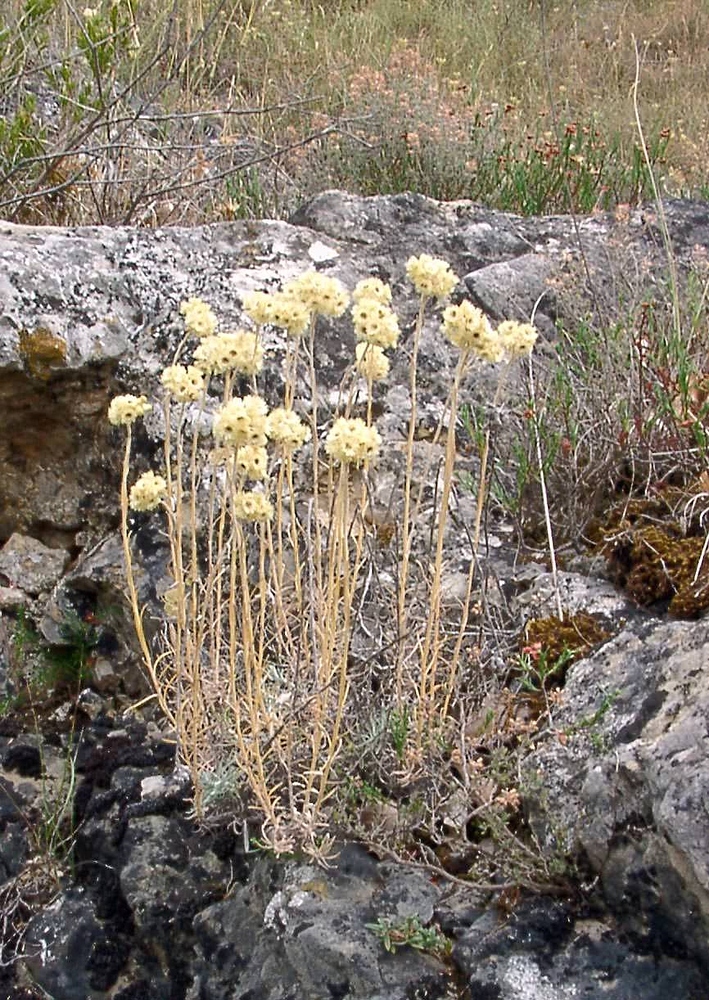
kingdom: Plantae
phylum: Tracheophyta
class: Magnoliopsida
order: Asterales
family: Asteraceae
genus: Helichrysum
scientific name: Helichrysum stoechas
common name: Goldilocks
